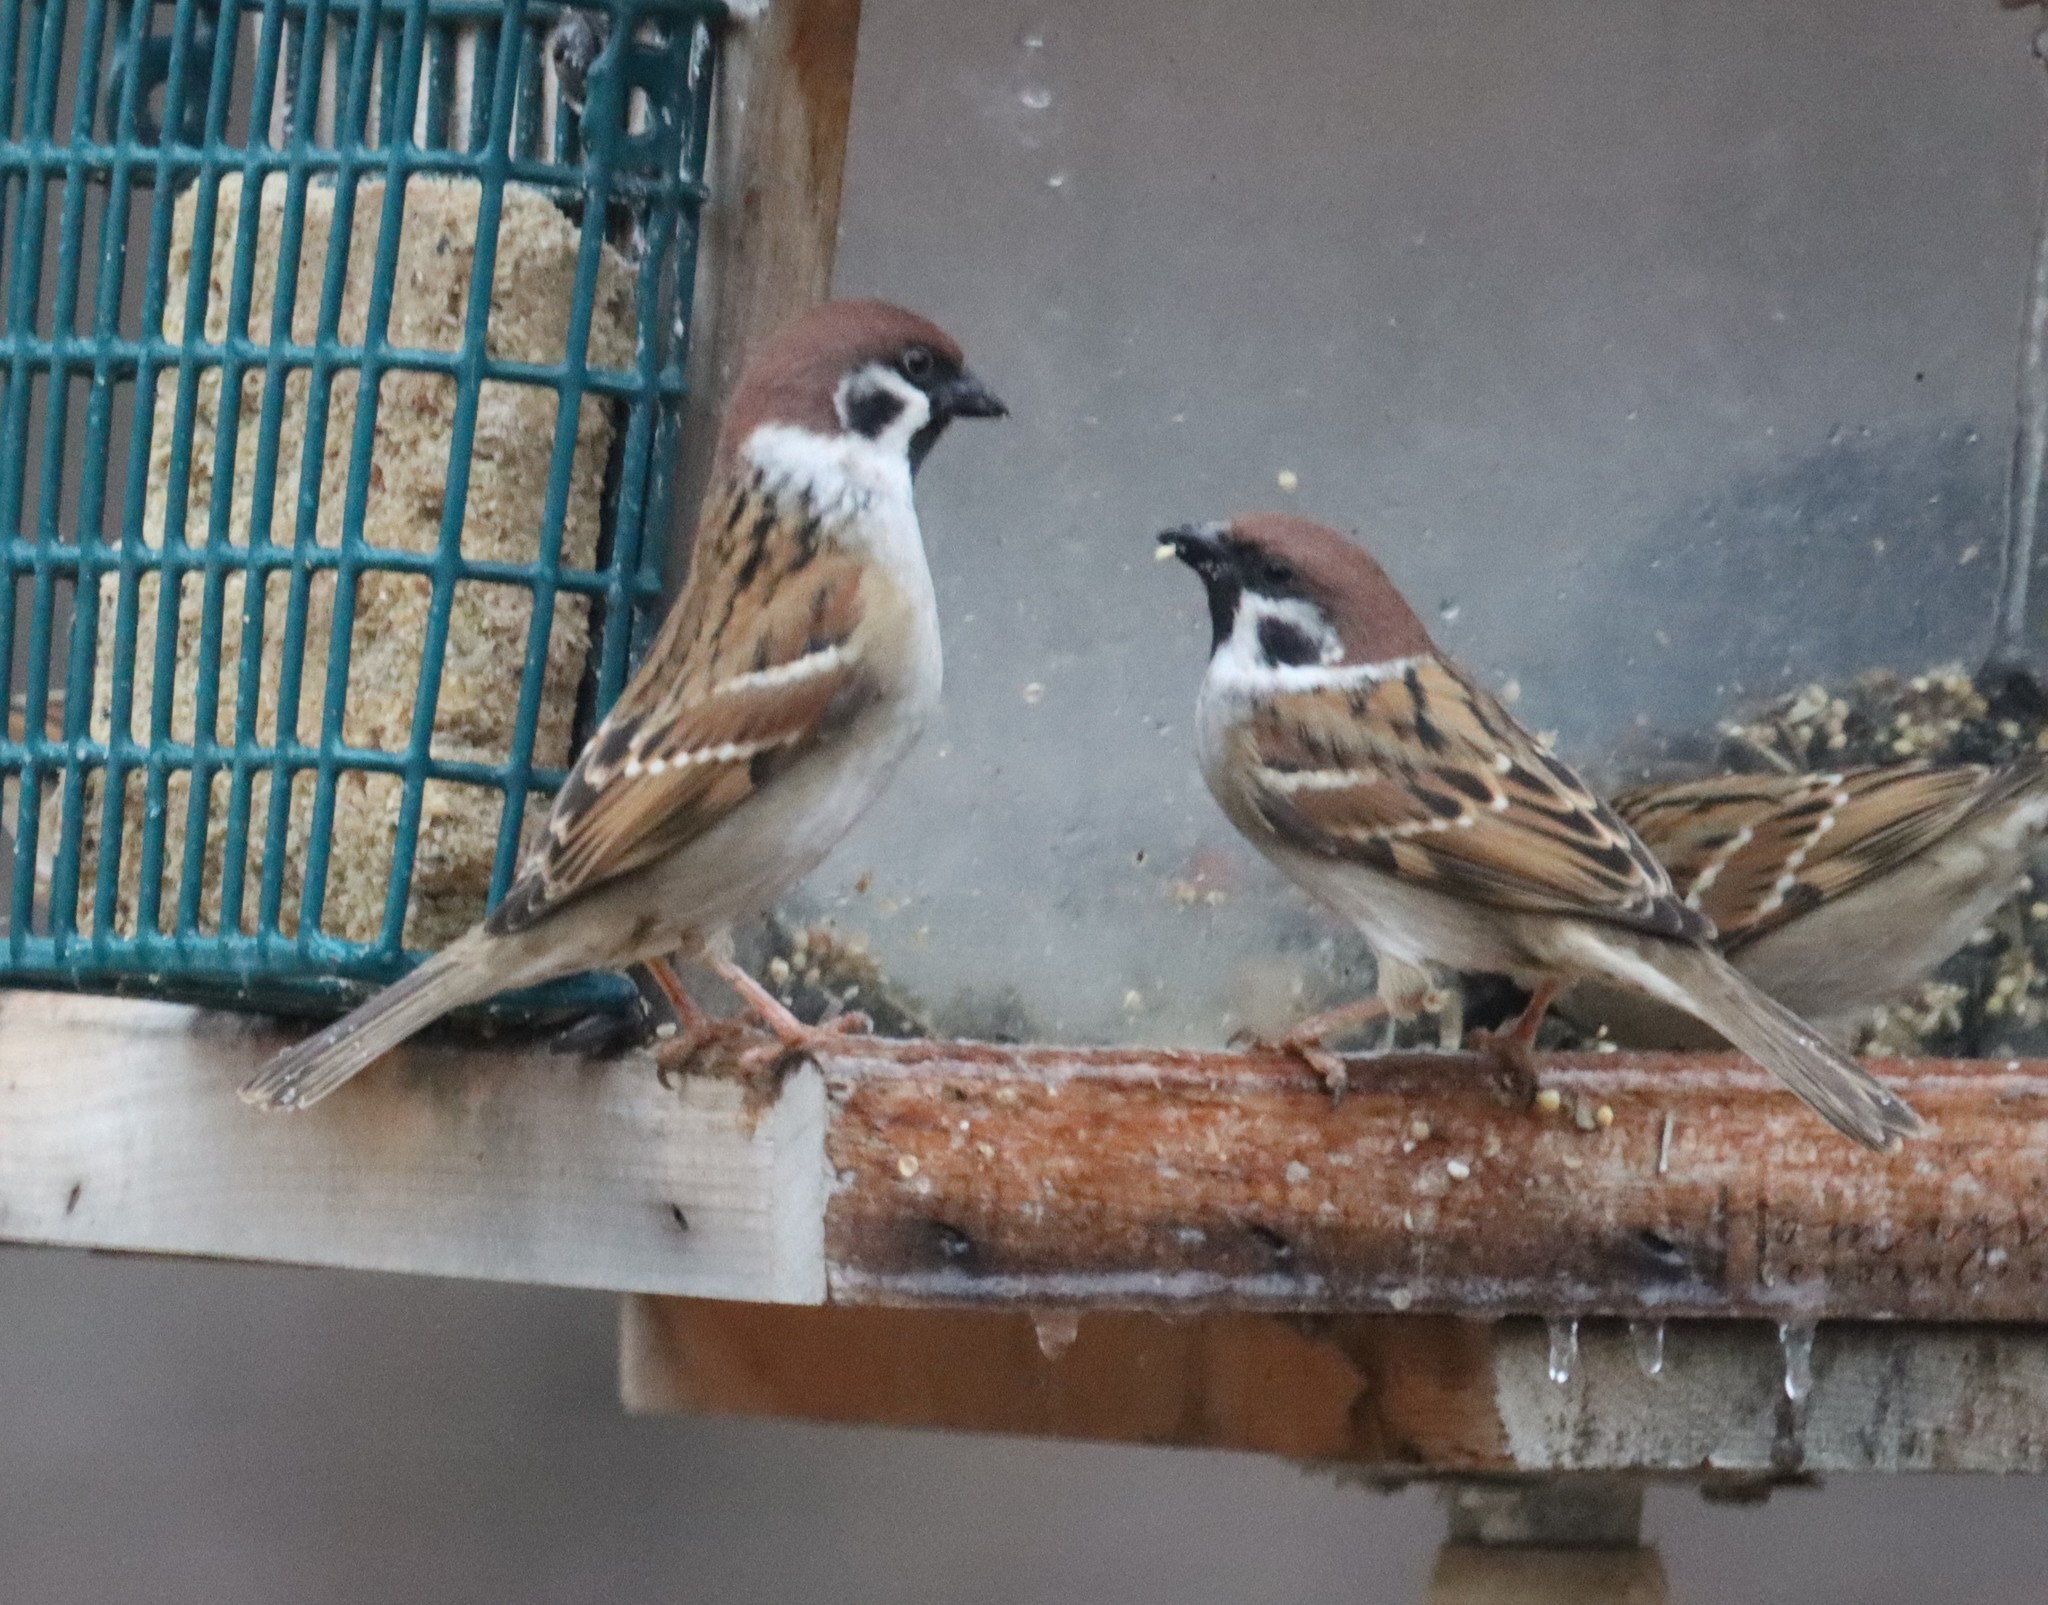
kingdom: Animalia
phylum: Chordata
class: Aves
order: Passeriformes
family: Passeridae
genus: Passer
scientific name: Passer montanus
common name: Eurasian tree sparrow
